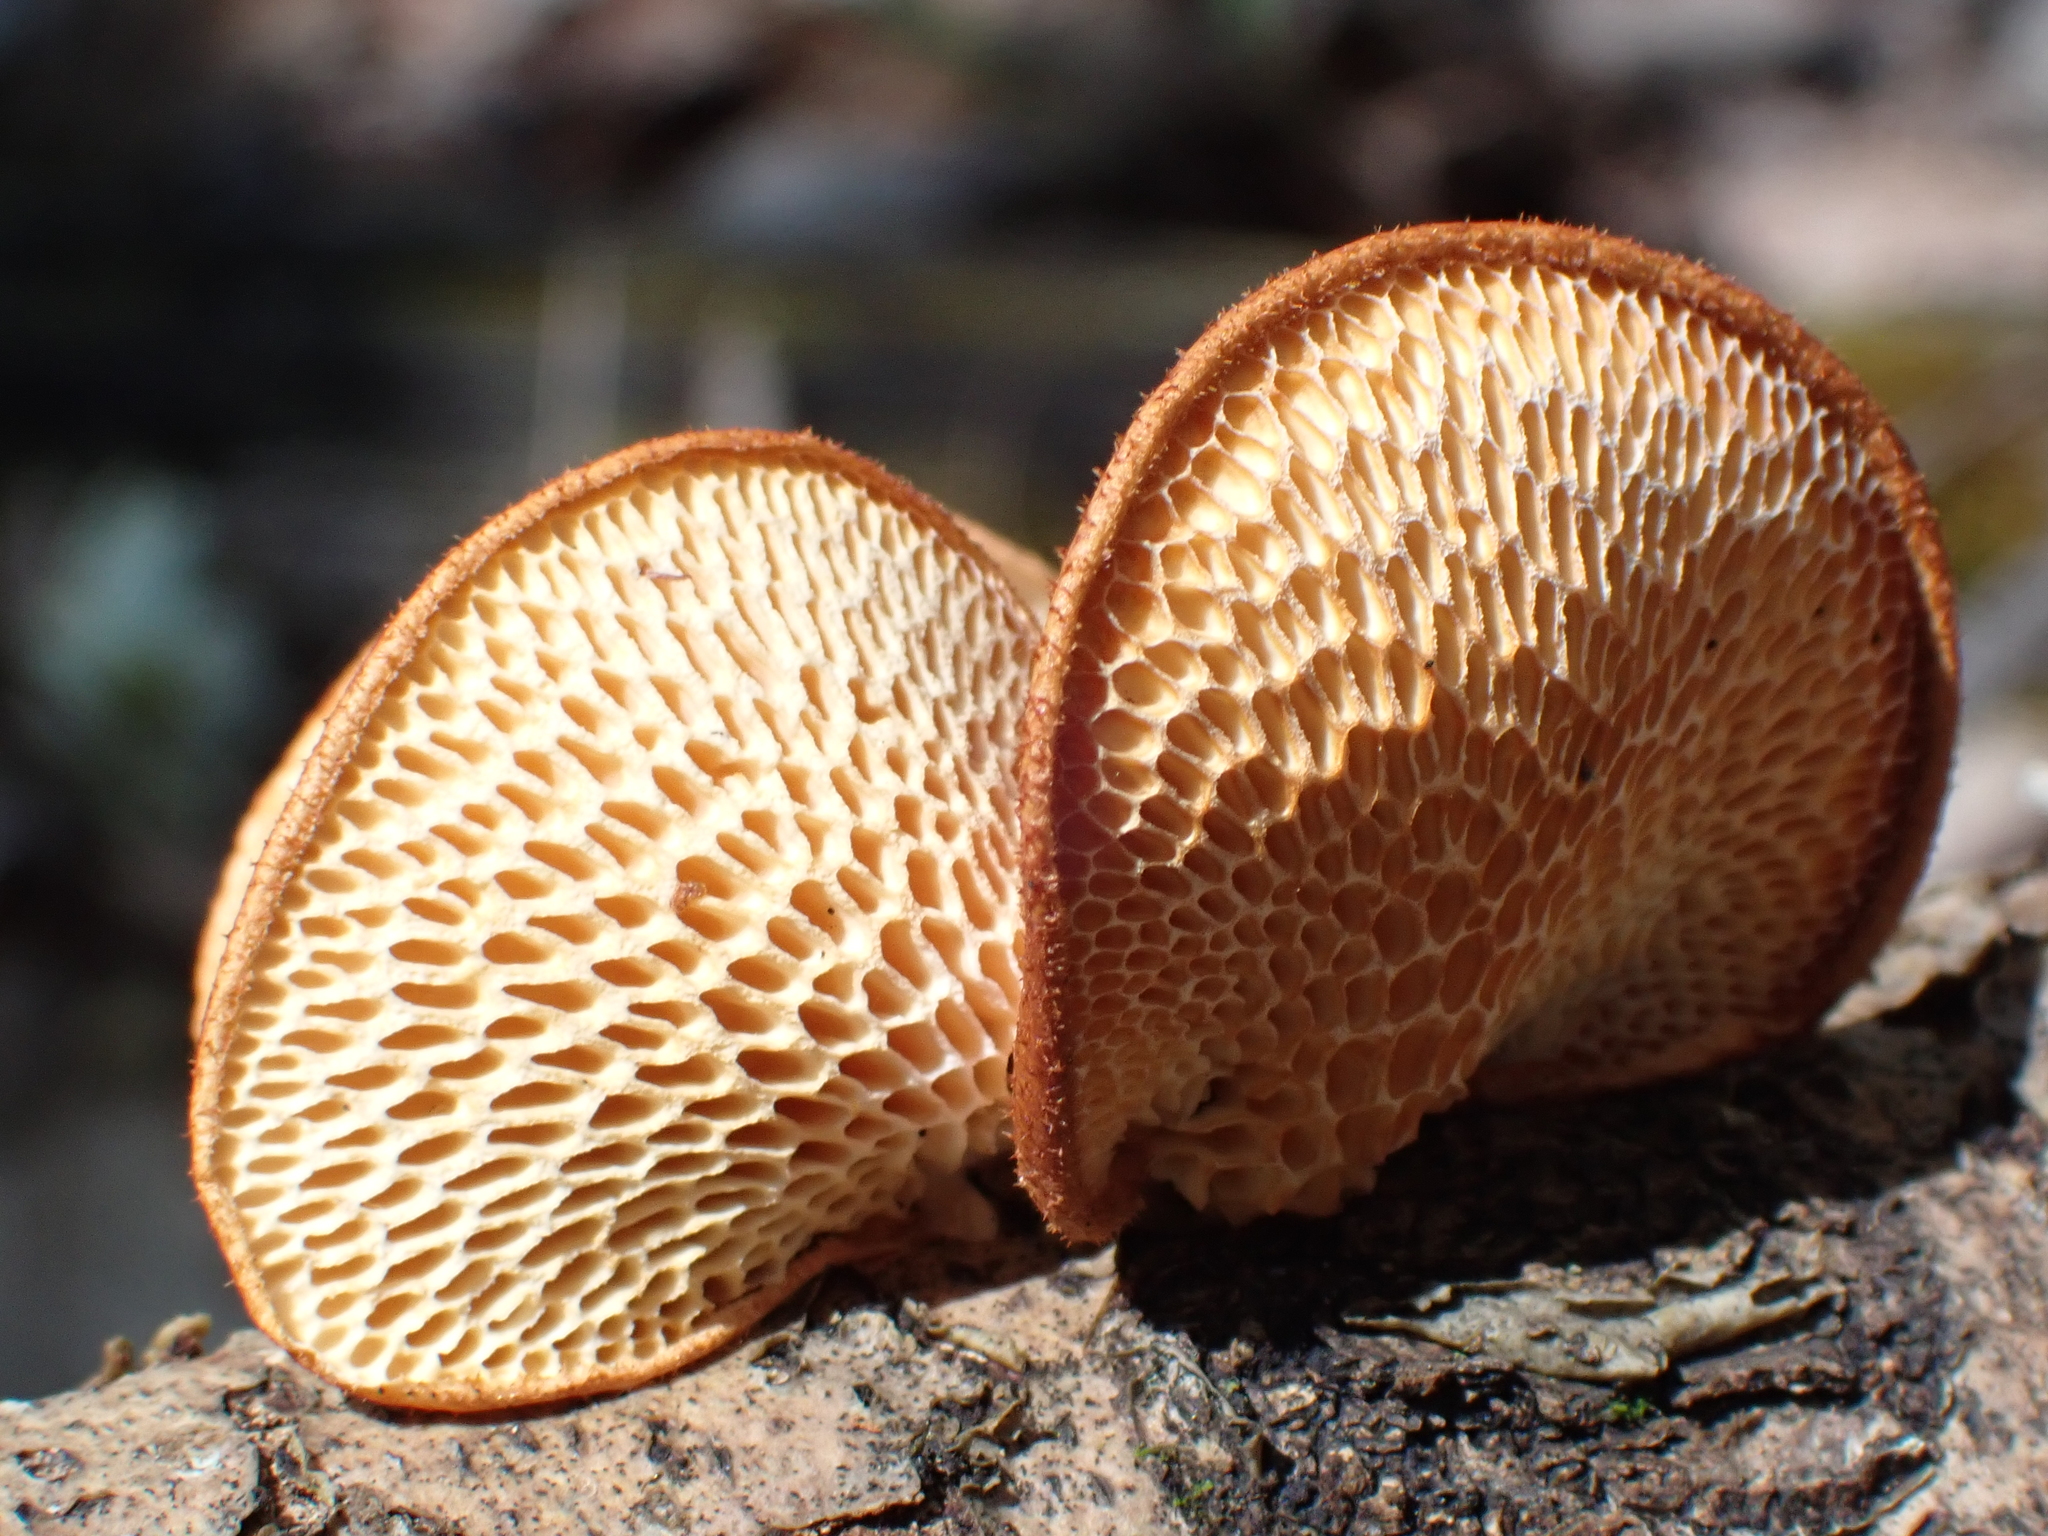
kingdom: Fungi
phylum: Basidiomycota
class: Agaricomycetes
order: Polyporales
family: Polyporaceae
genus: Neofavolus
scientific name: Neofavolus alveolaris
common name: Hexagonal-pored polypore
